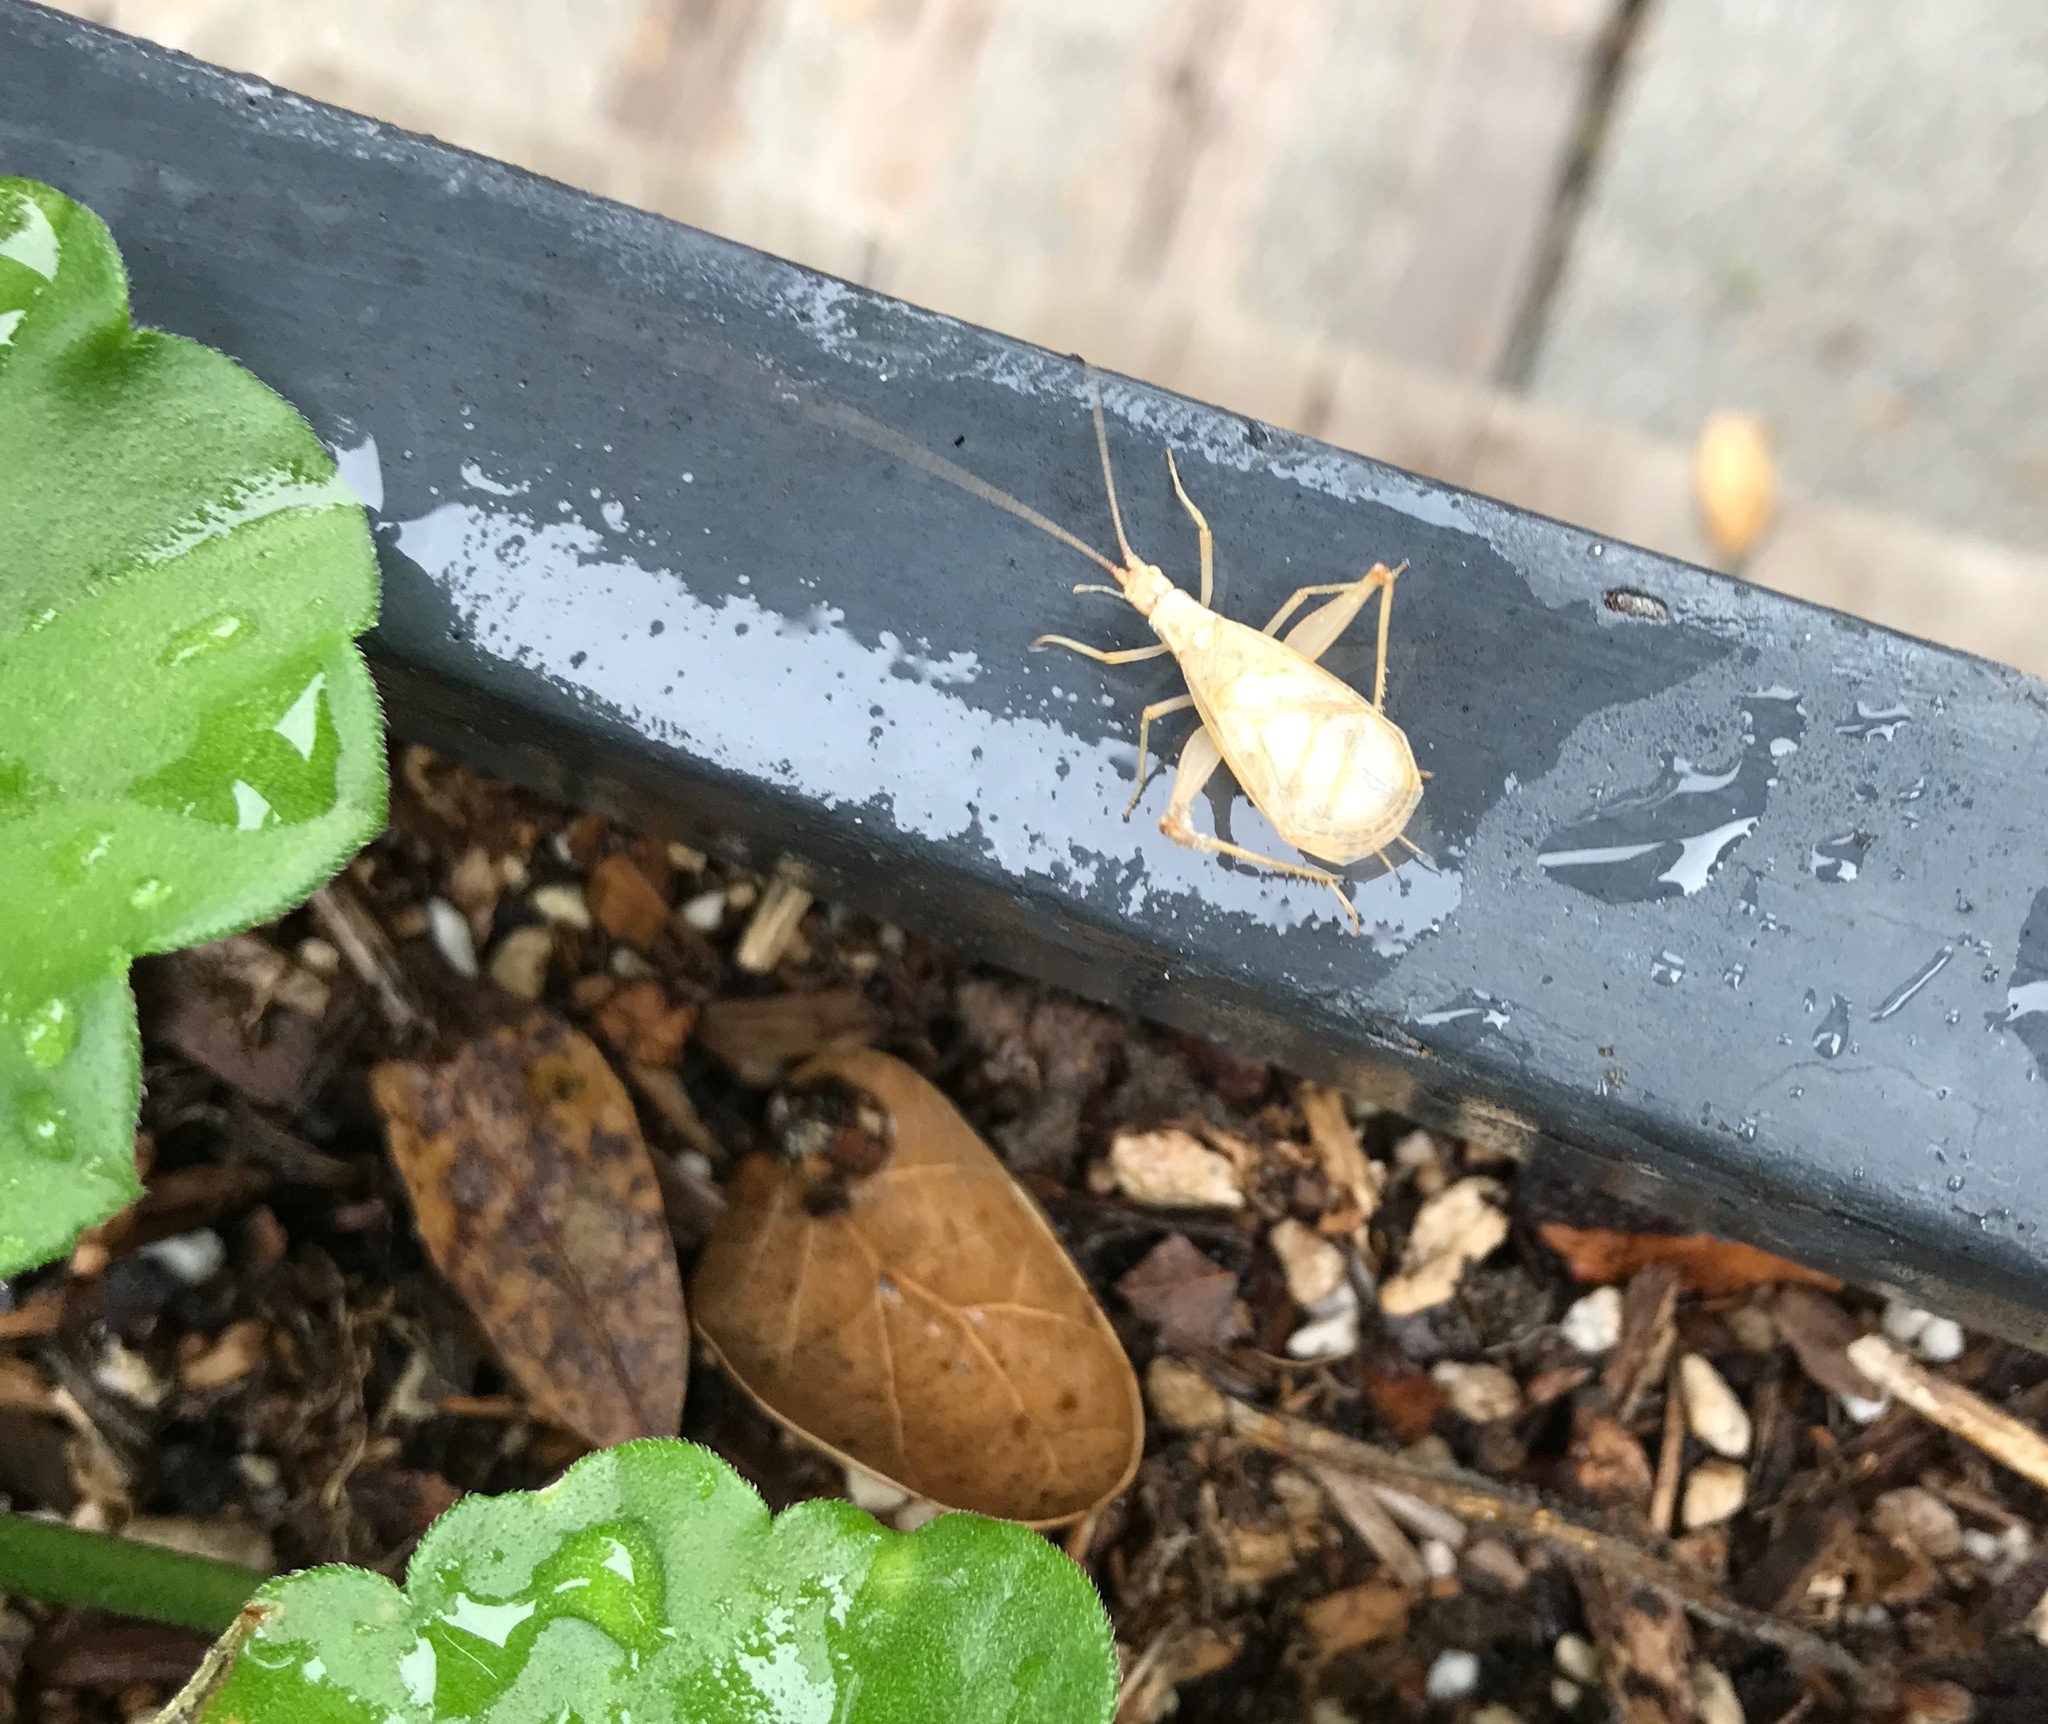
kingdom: Animalia
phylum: Arthropoda
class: Insecta
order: Orthoptera
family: Gryllidae
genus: Oecanthus
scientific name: Oecanthus californicus
